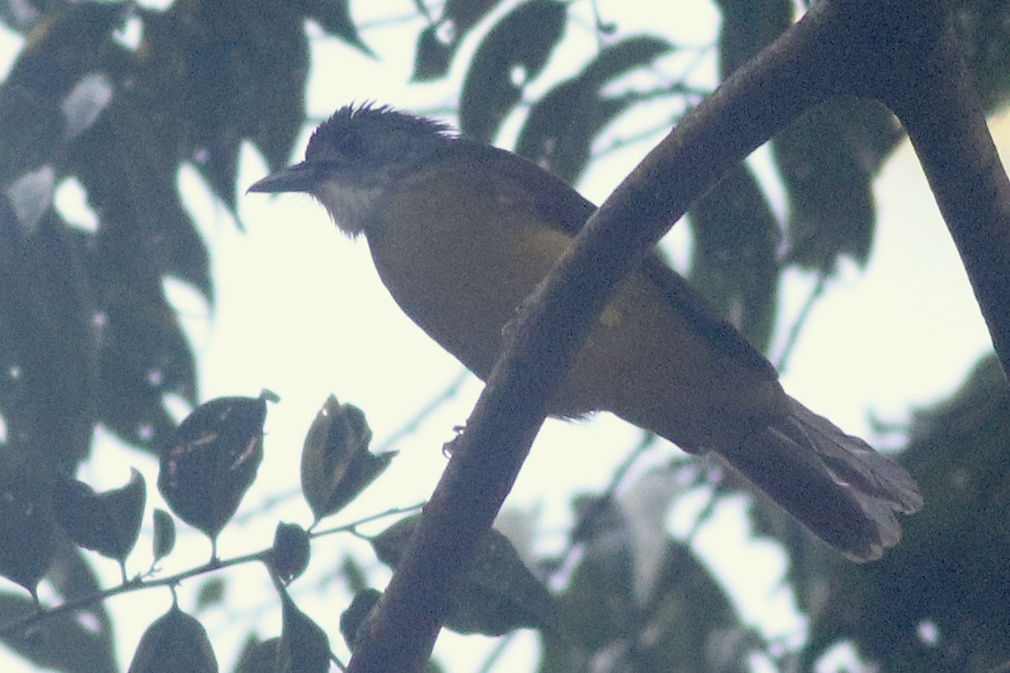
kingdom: Animalia
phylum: Chordata
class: Aves
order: Passeriformes
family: Pycnonotidae
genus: Alophoixus
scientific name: Alophoixus phaeocephalus
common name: Yellow-bellied bulbul
